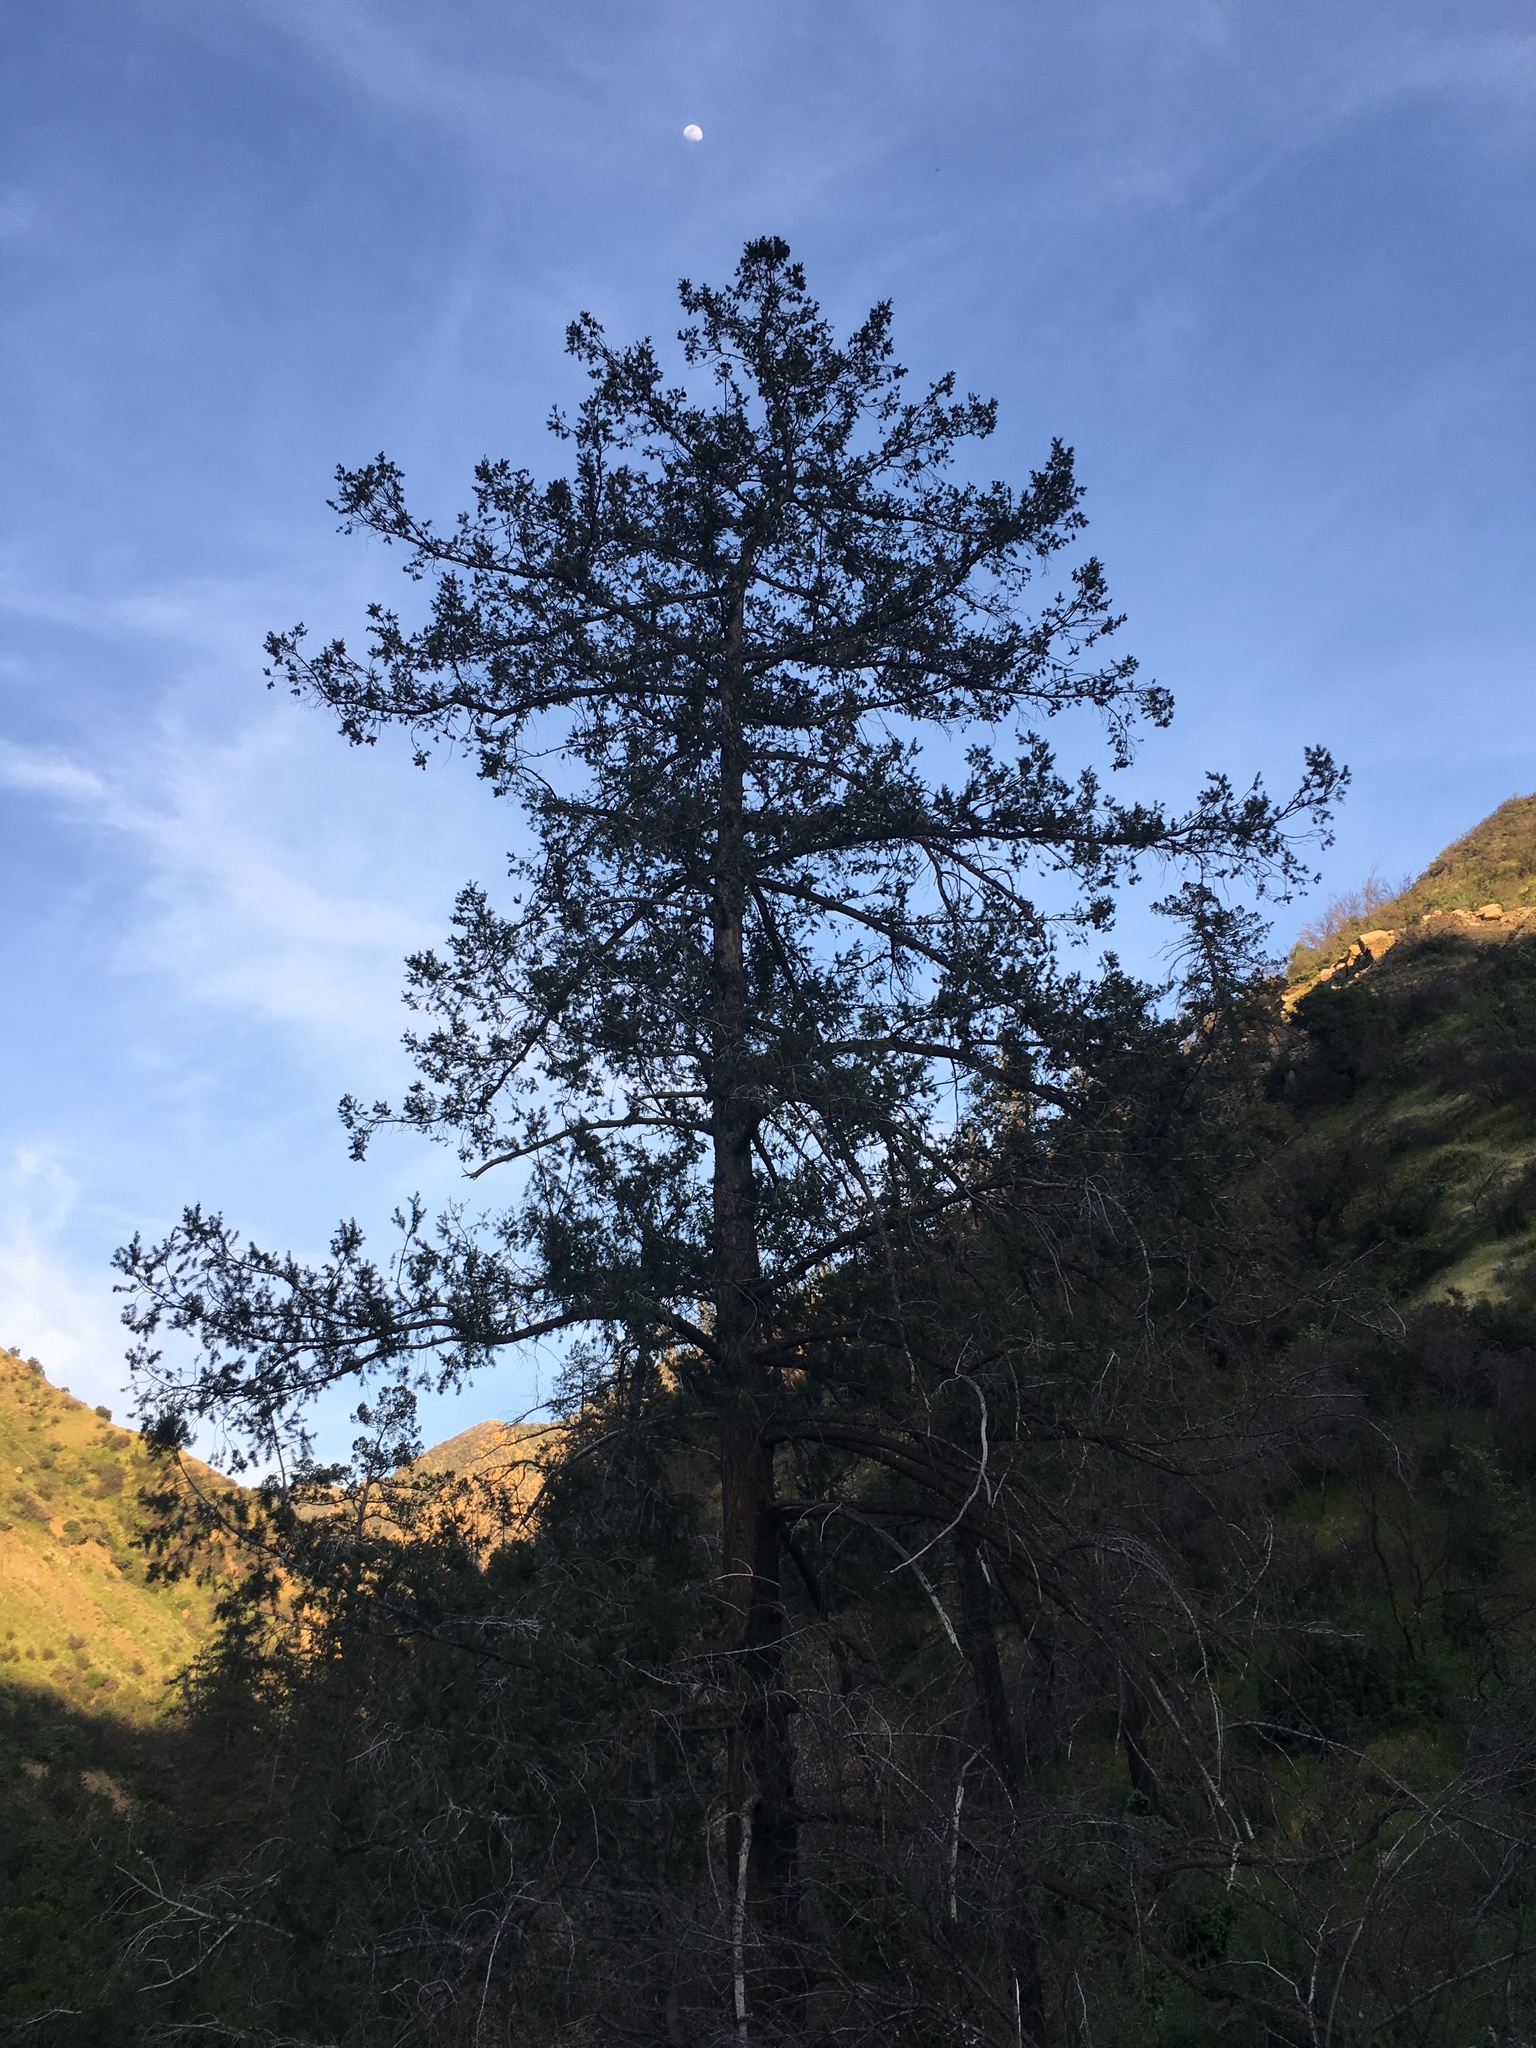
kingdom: Plantae
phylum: Tracheophyta
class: Pinopsida
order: Pinales
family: Pinaceae
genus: Pseudotsuga
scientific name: Pseudotsuga macrocarpa
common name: Big-cone douglas-fir
